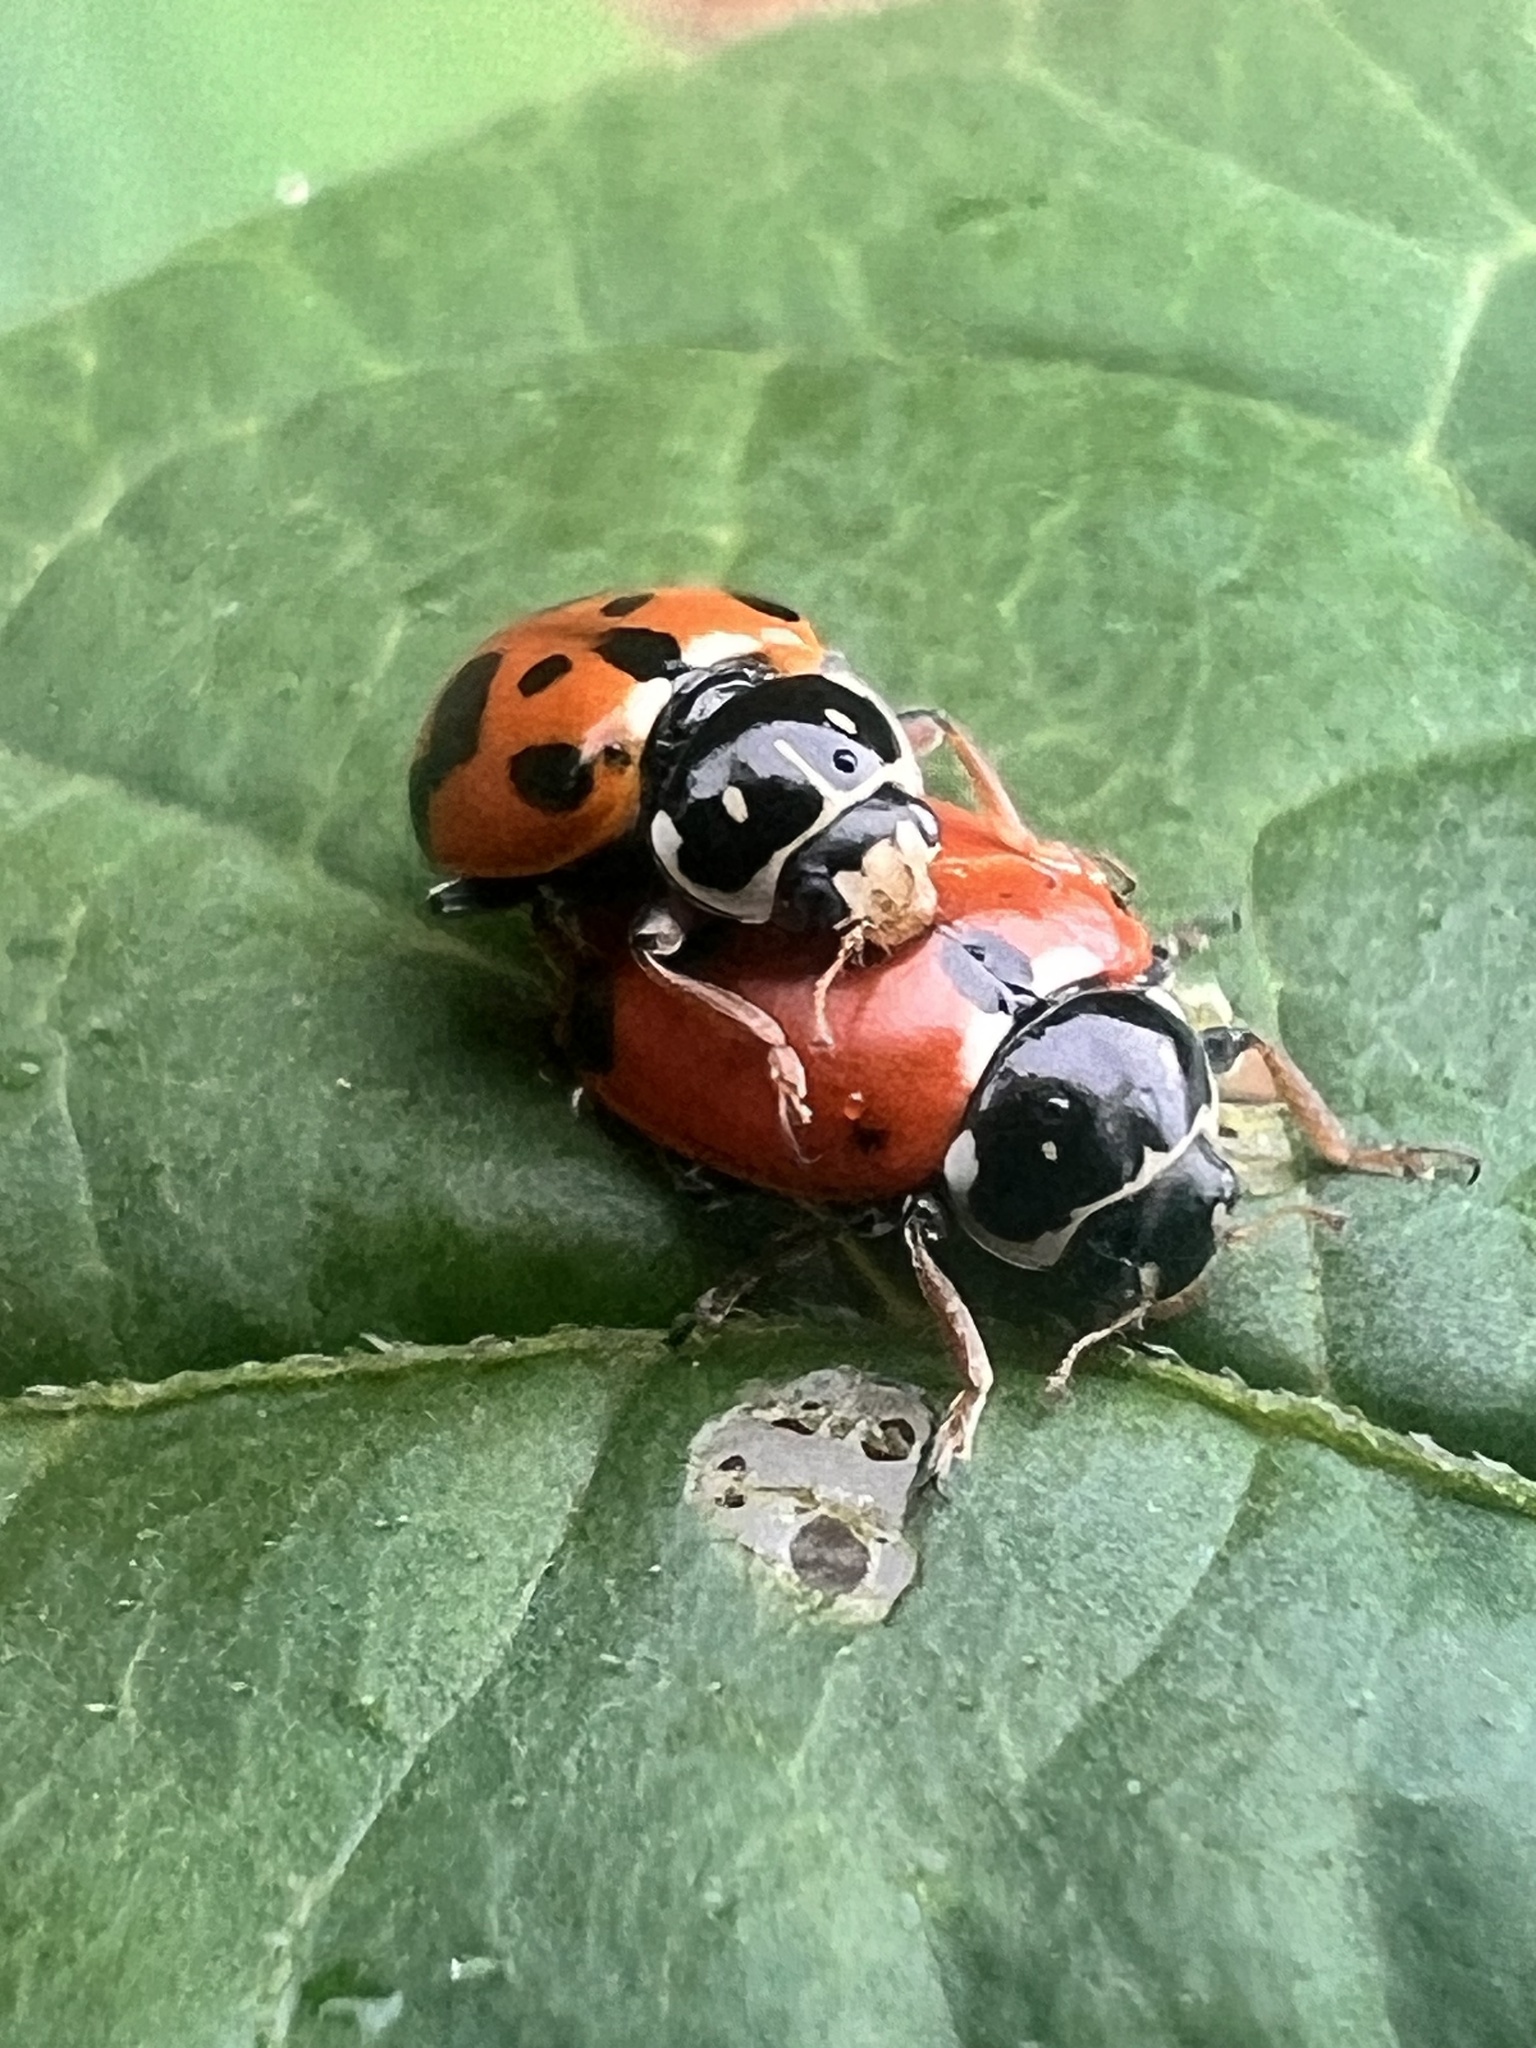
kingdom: Animalia
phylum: Arthropoda
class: Insecta
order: Coleoptera
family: Coccinellidae
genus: Hippodamia
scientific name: Hippodamia variegata
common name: Ladybird beetle
